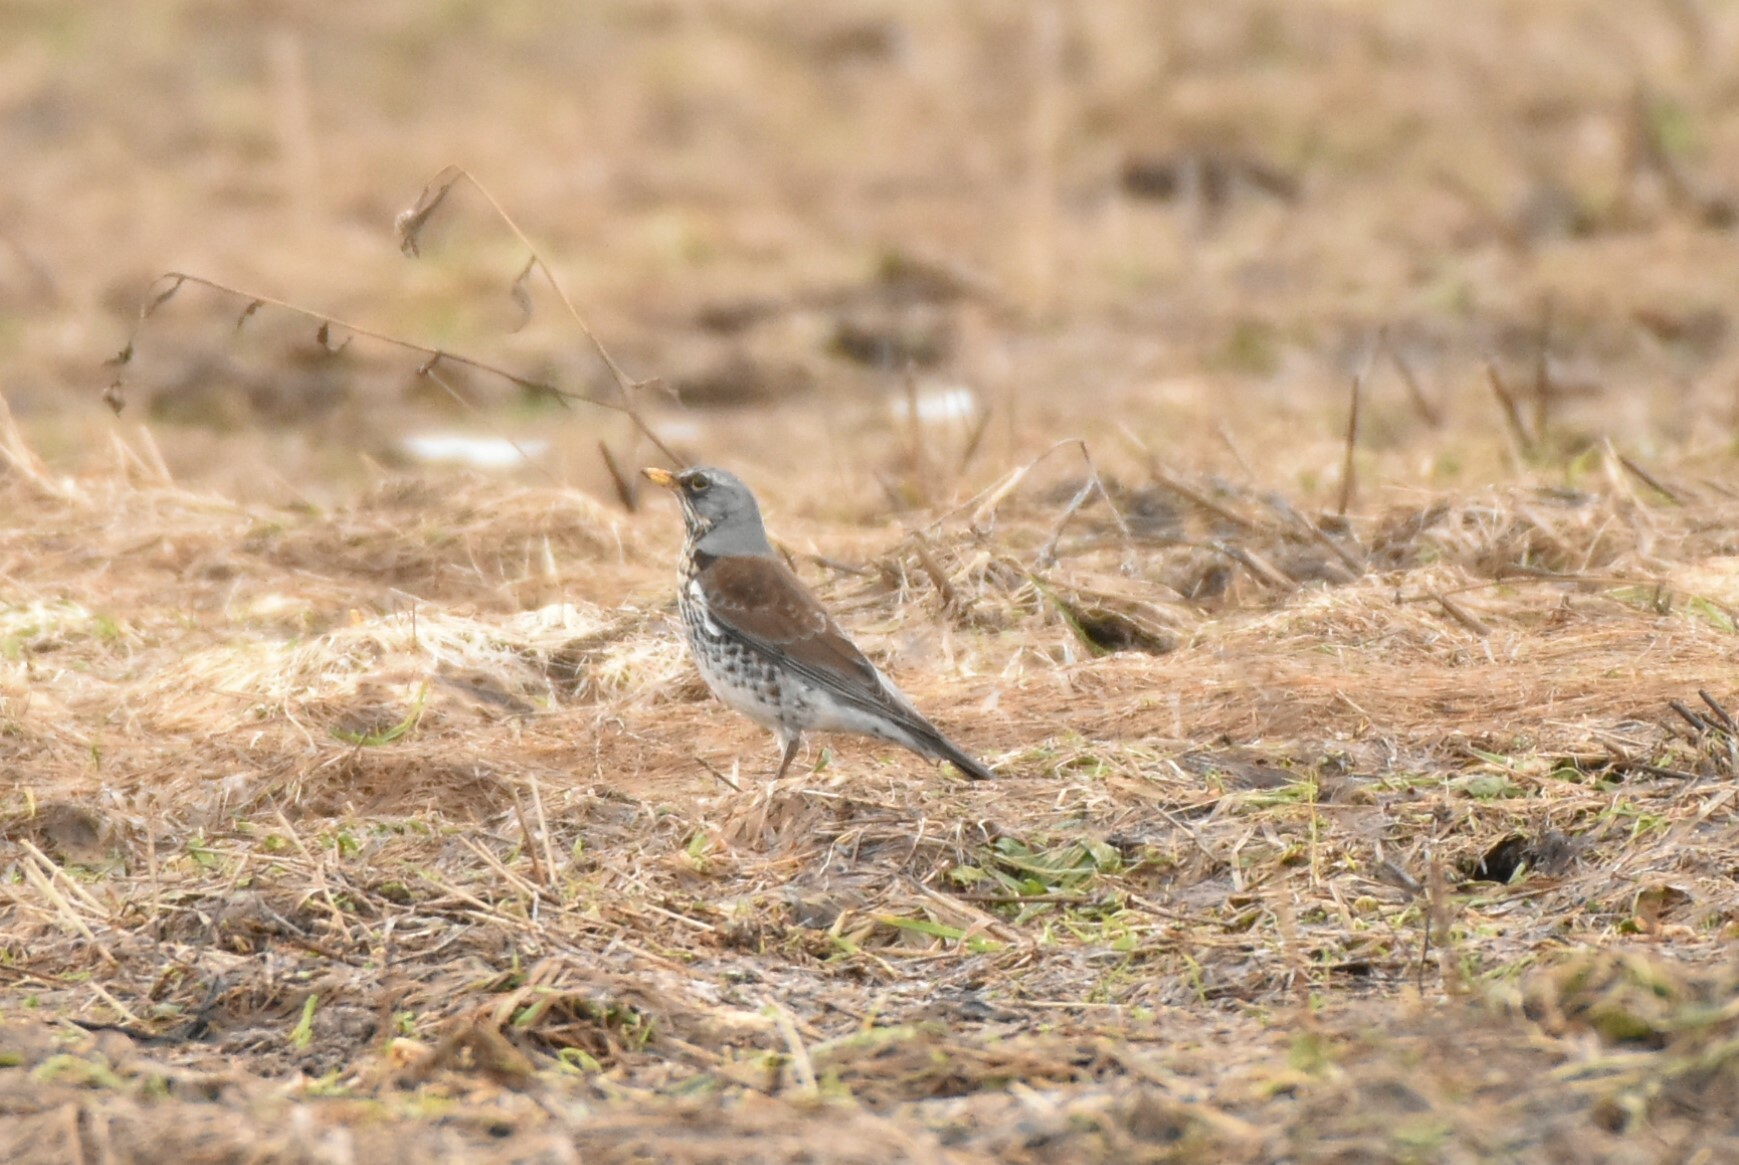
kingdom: Animalia
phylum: Chordata
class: Aves
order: Passeriformes
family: Turdidae
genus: Turdus
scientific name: Turdus pilaris
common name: Fieldfare
